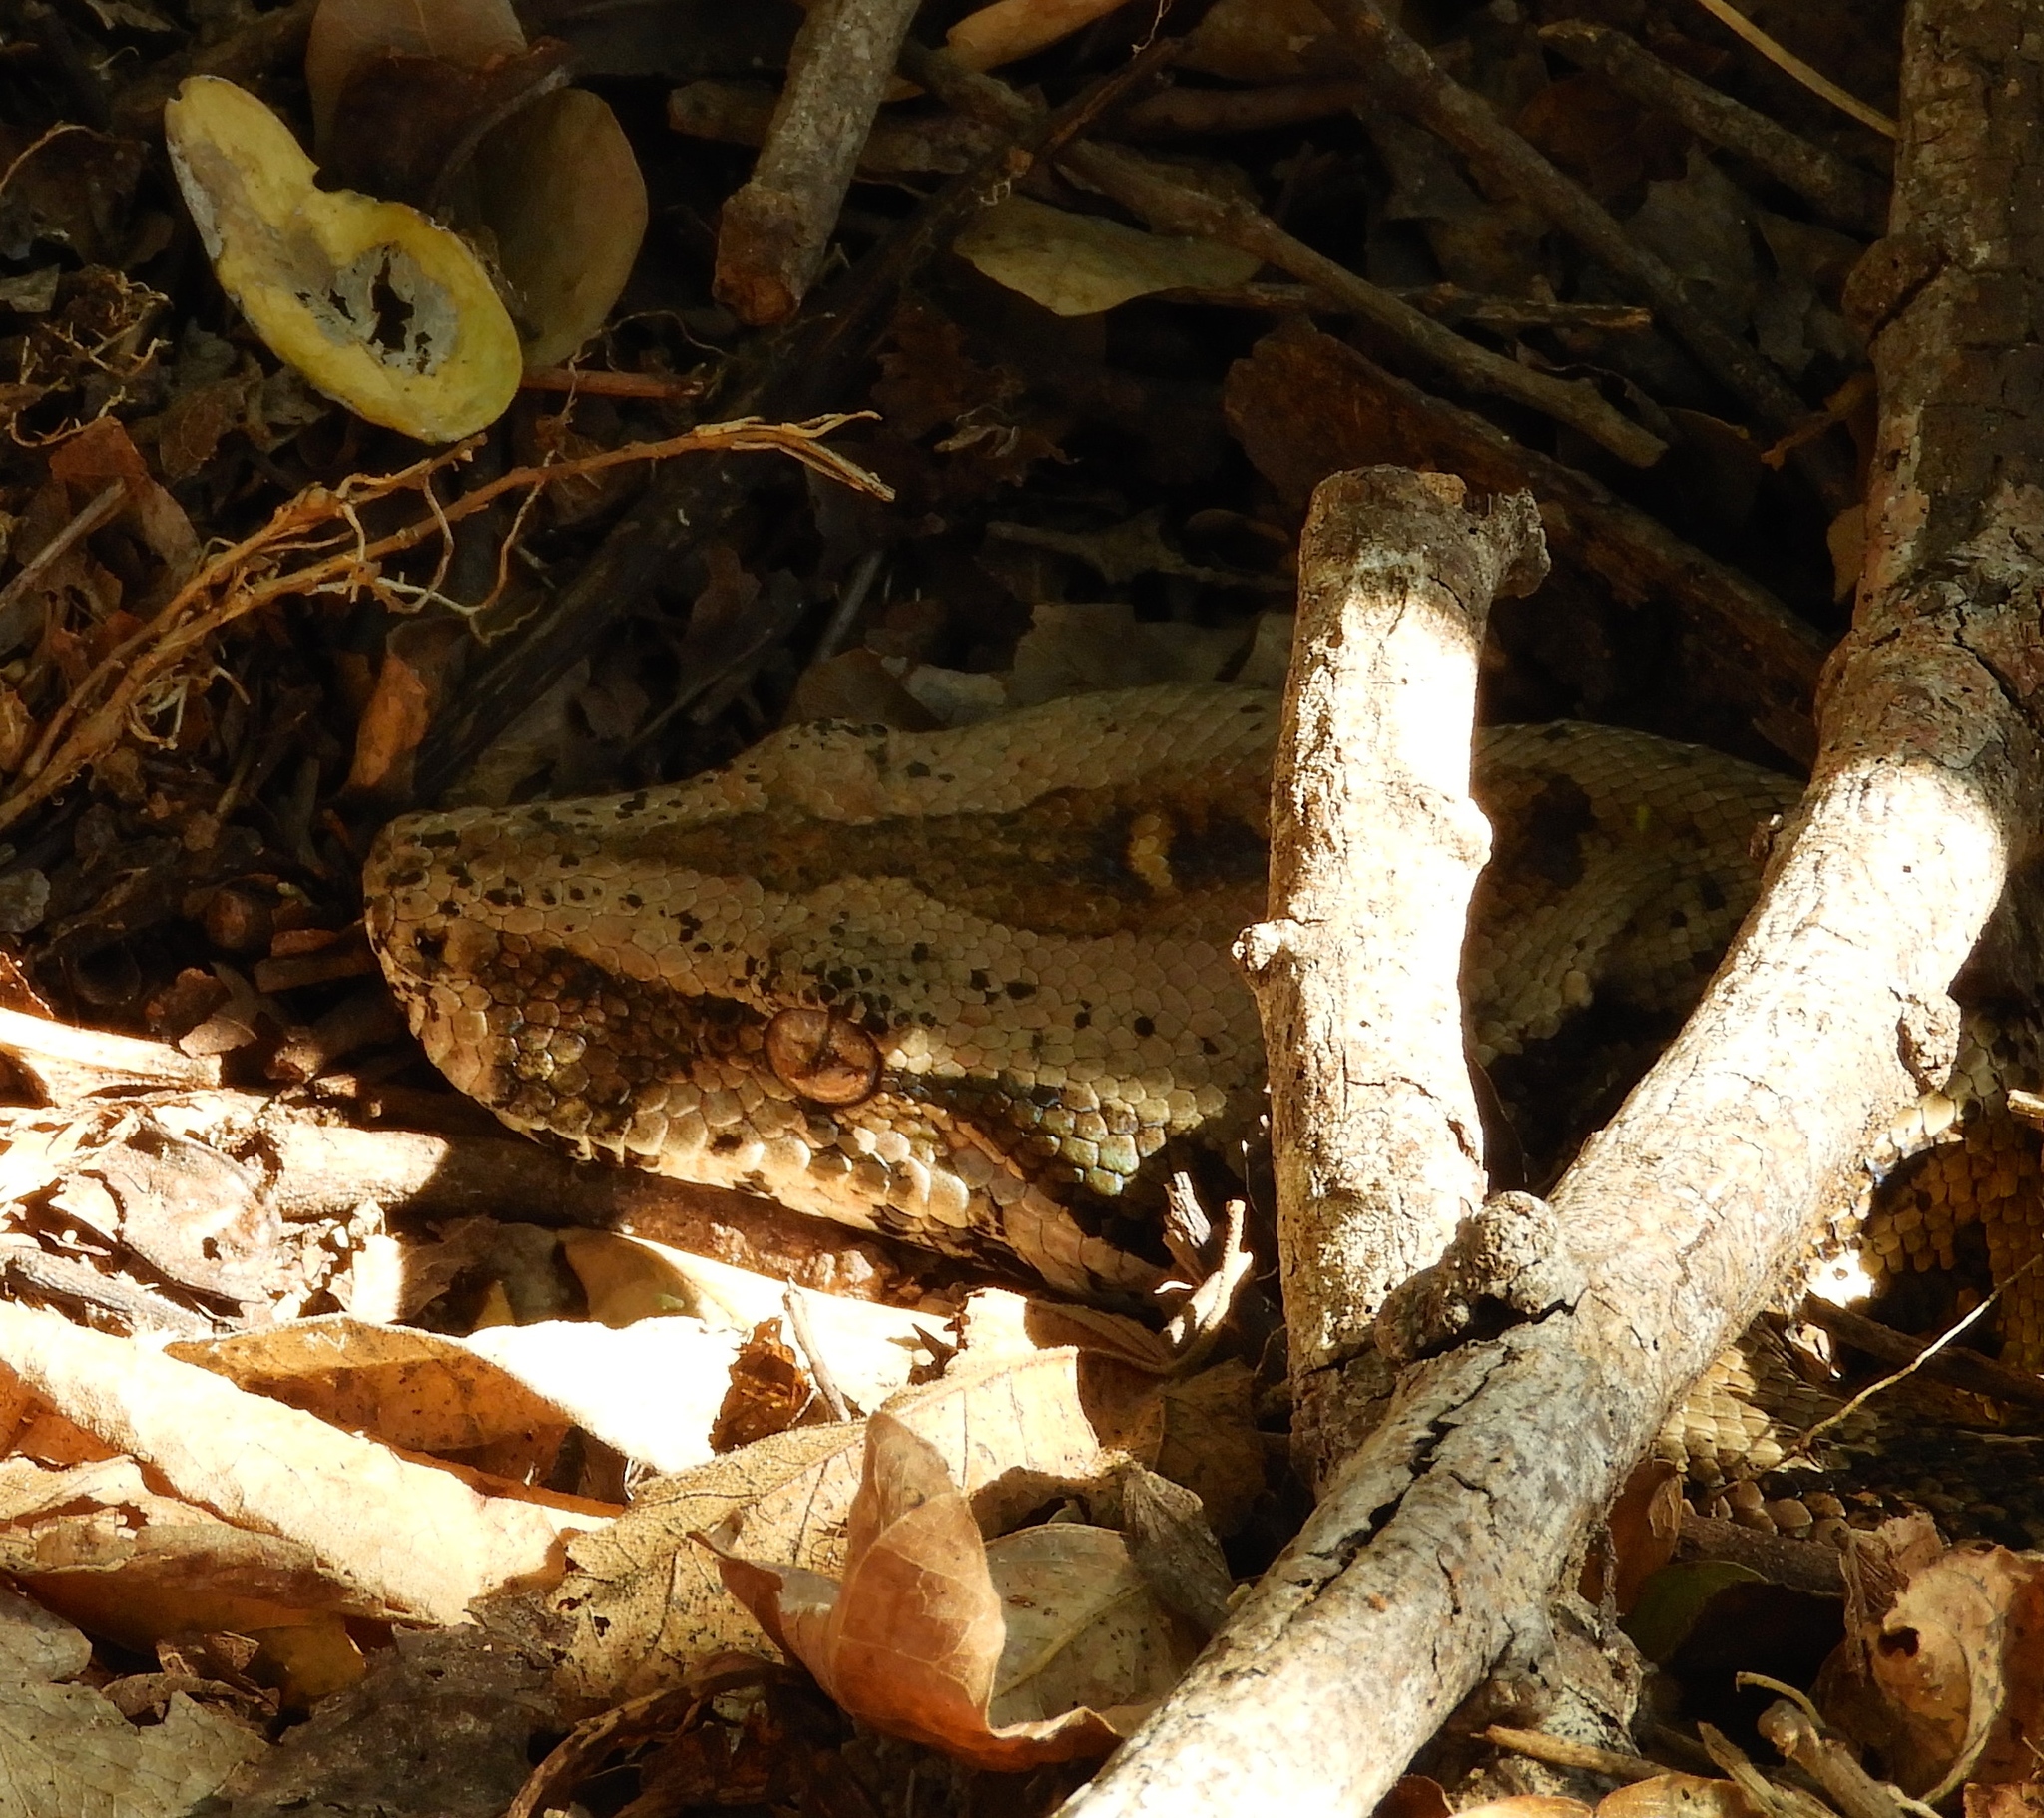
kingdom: Animalia
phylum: Chordata
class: Squamata
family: Boidae
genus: Boa
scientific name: Boa
